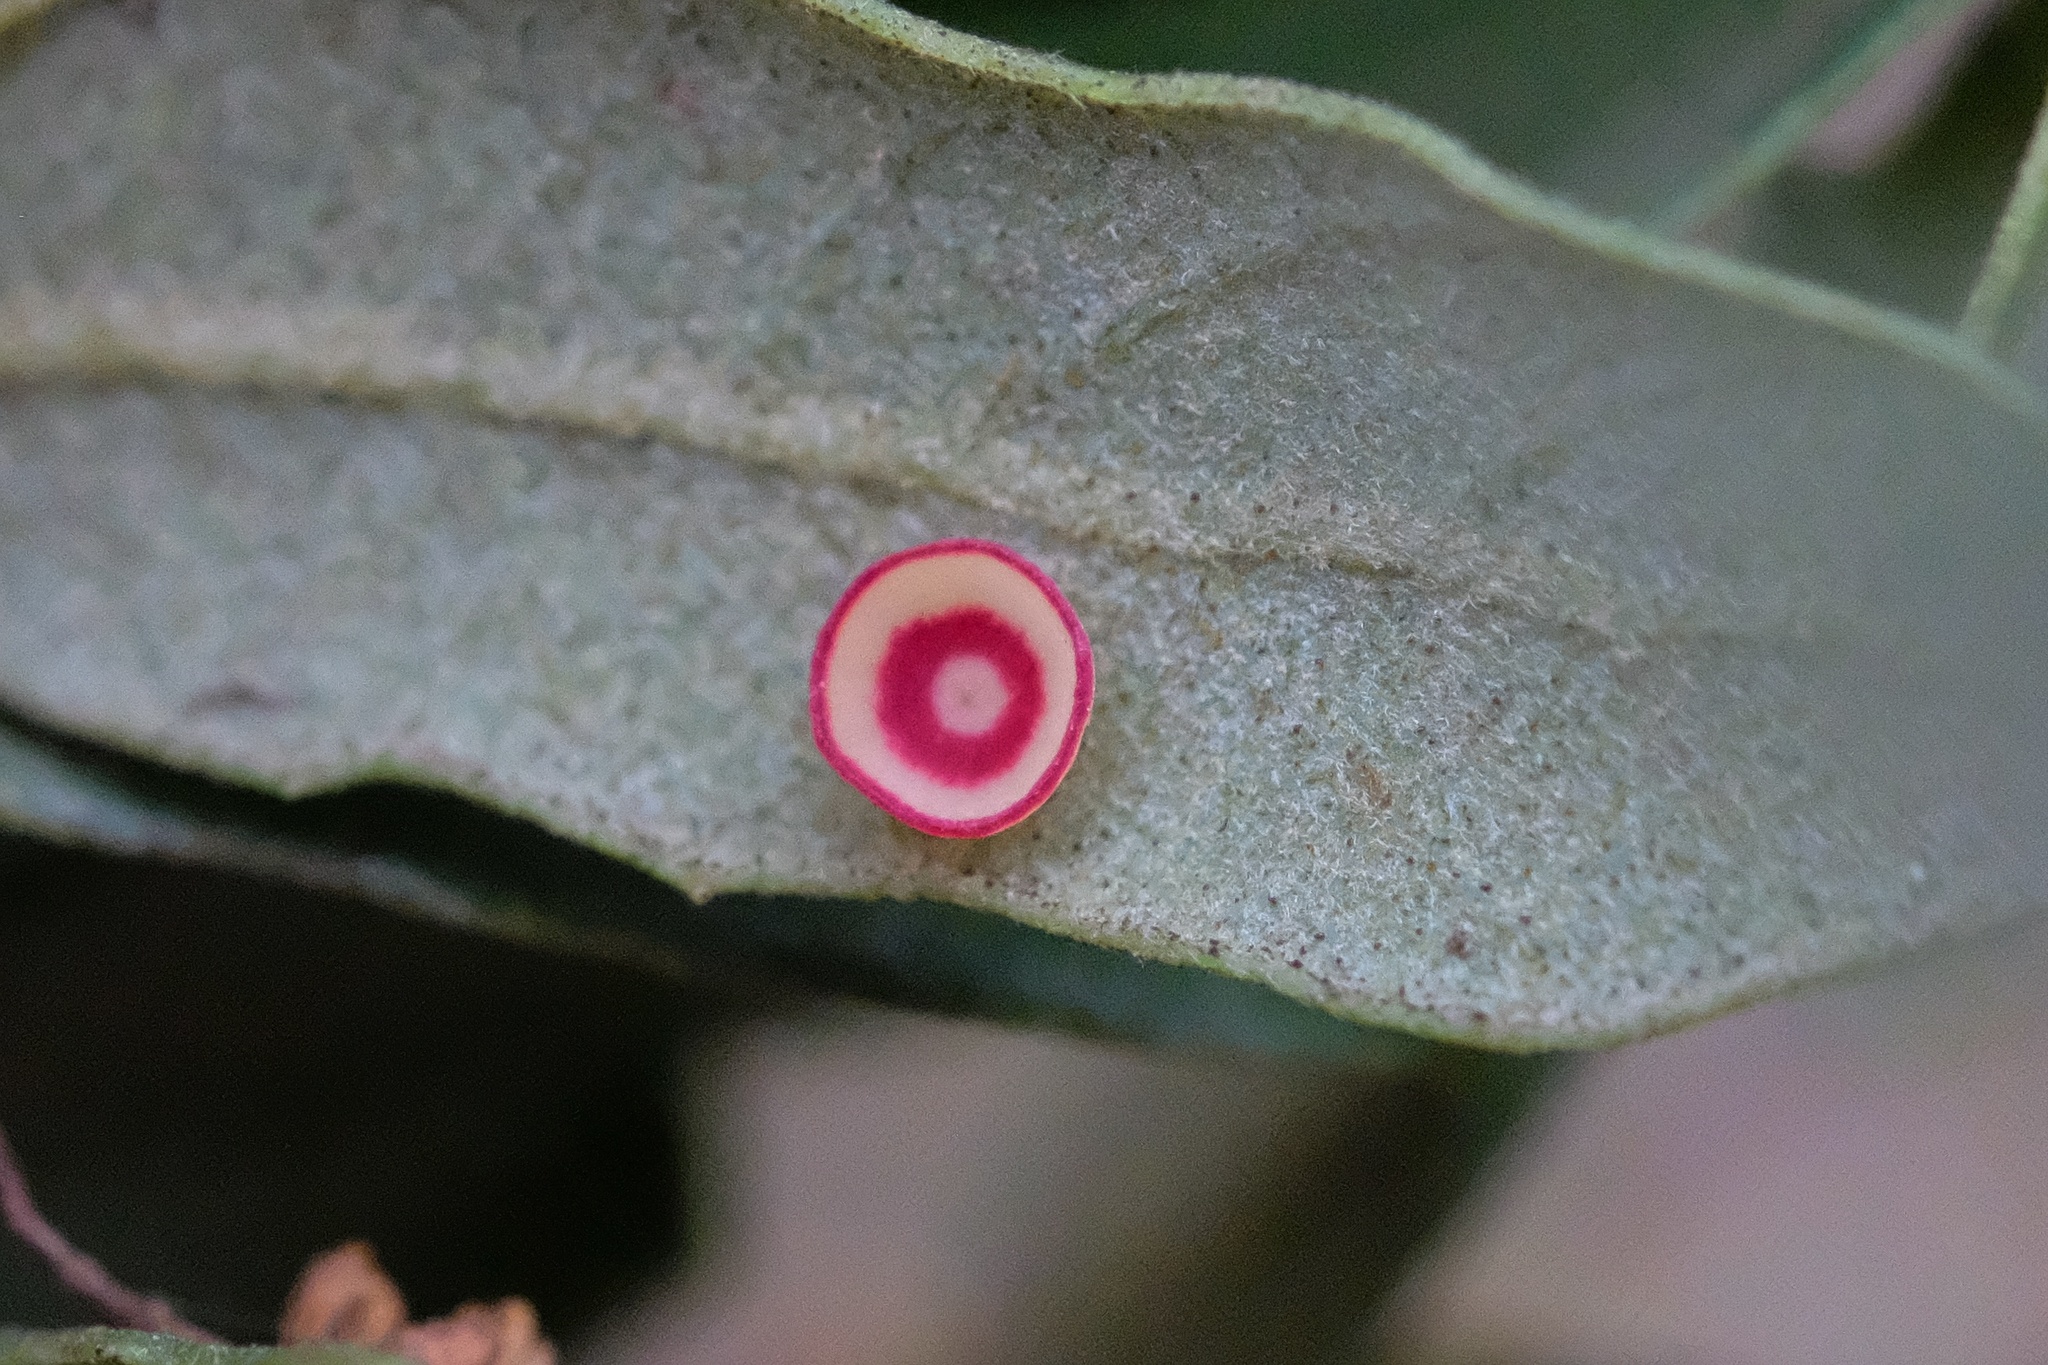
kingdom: Animalia
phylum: Arthropoda
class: Insecta
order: Hymenoptera
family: Cynipidae
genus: Andricus
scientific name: Andricus
